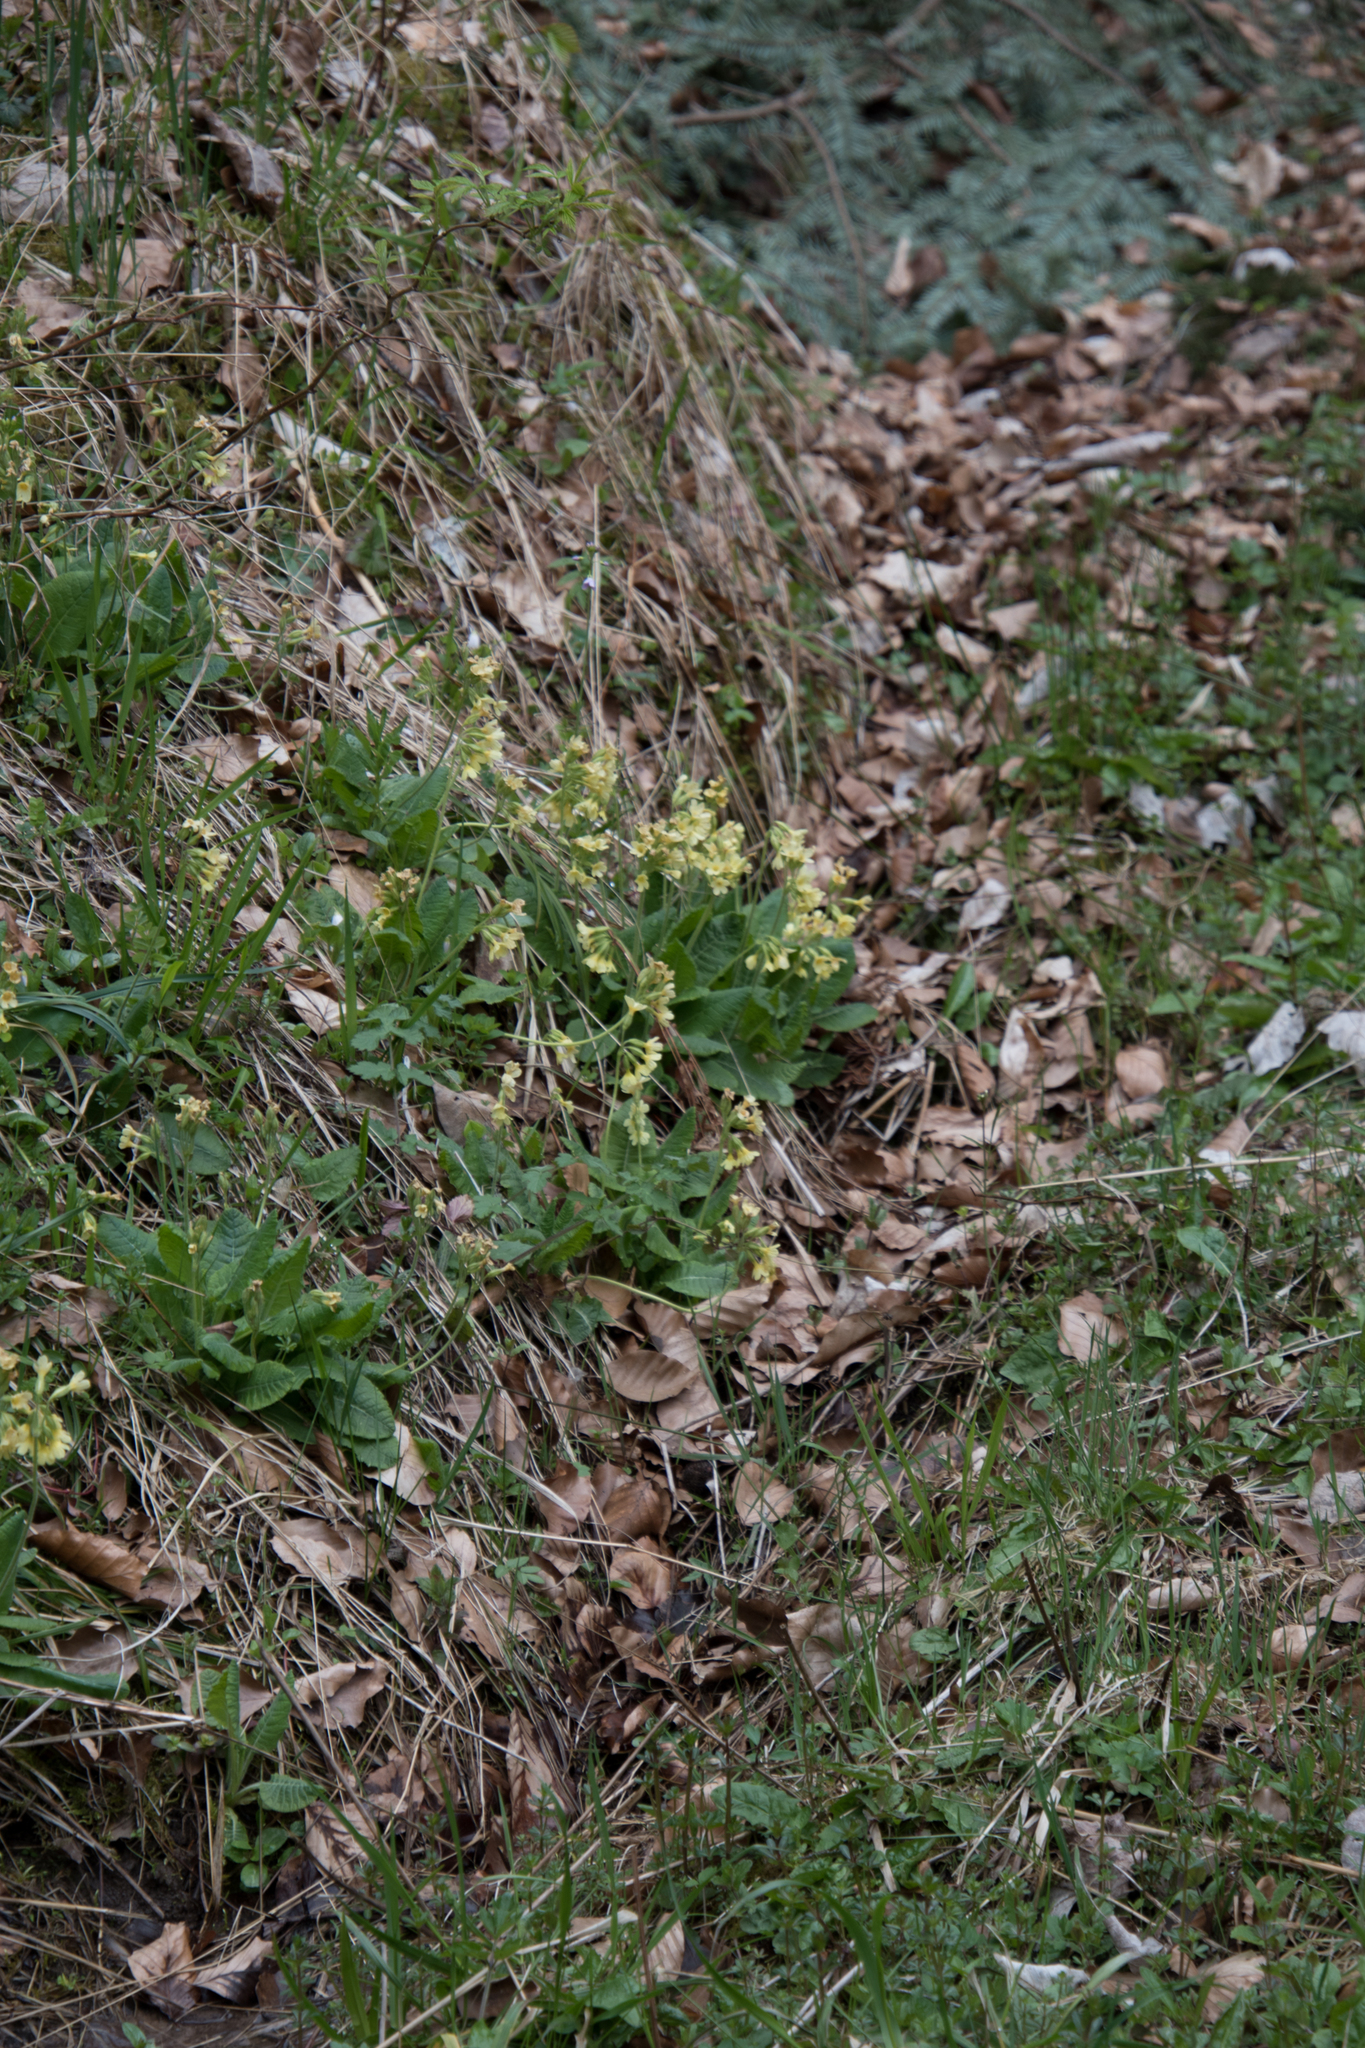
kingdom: Plantae
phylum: Tracheophyta
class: Magnoliopsida
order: Ericales
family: Primulaceae
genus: Primula
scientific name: Primula elatior
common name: Oxlip
